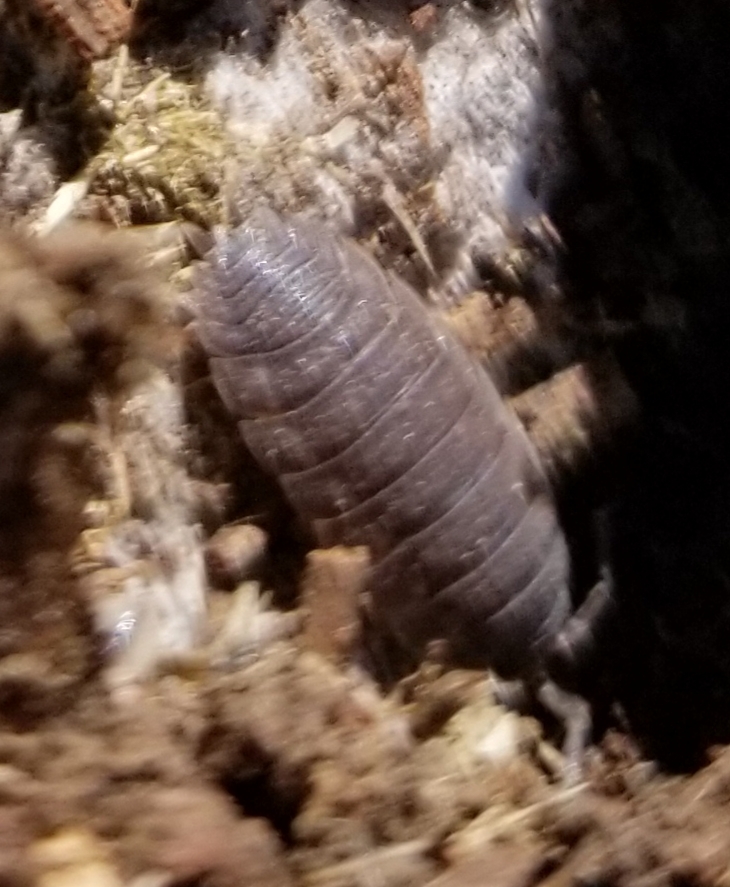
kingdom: Animalia
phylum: Arthropoda
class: Malacostraca
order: Isopoda
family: Porcellionidae
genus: Porcellio
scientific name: Porcellio scaber
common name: Common rough woodlouse
